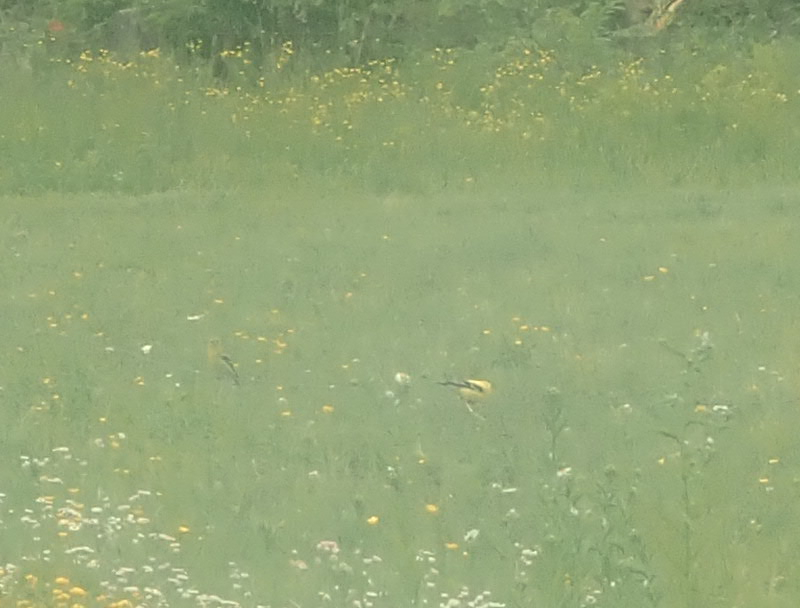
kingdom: Animalia
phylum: Chordata
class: Aves
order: Passeriformes
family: Fringillidae
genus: Spinus
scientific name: Spinus tristis
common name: American goldfinch
